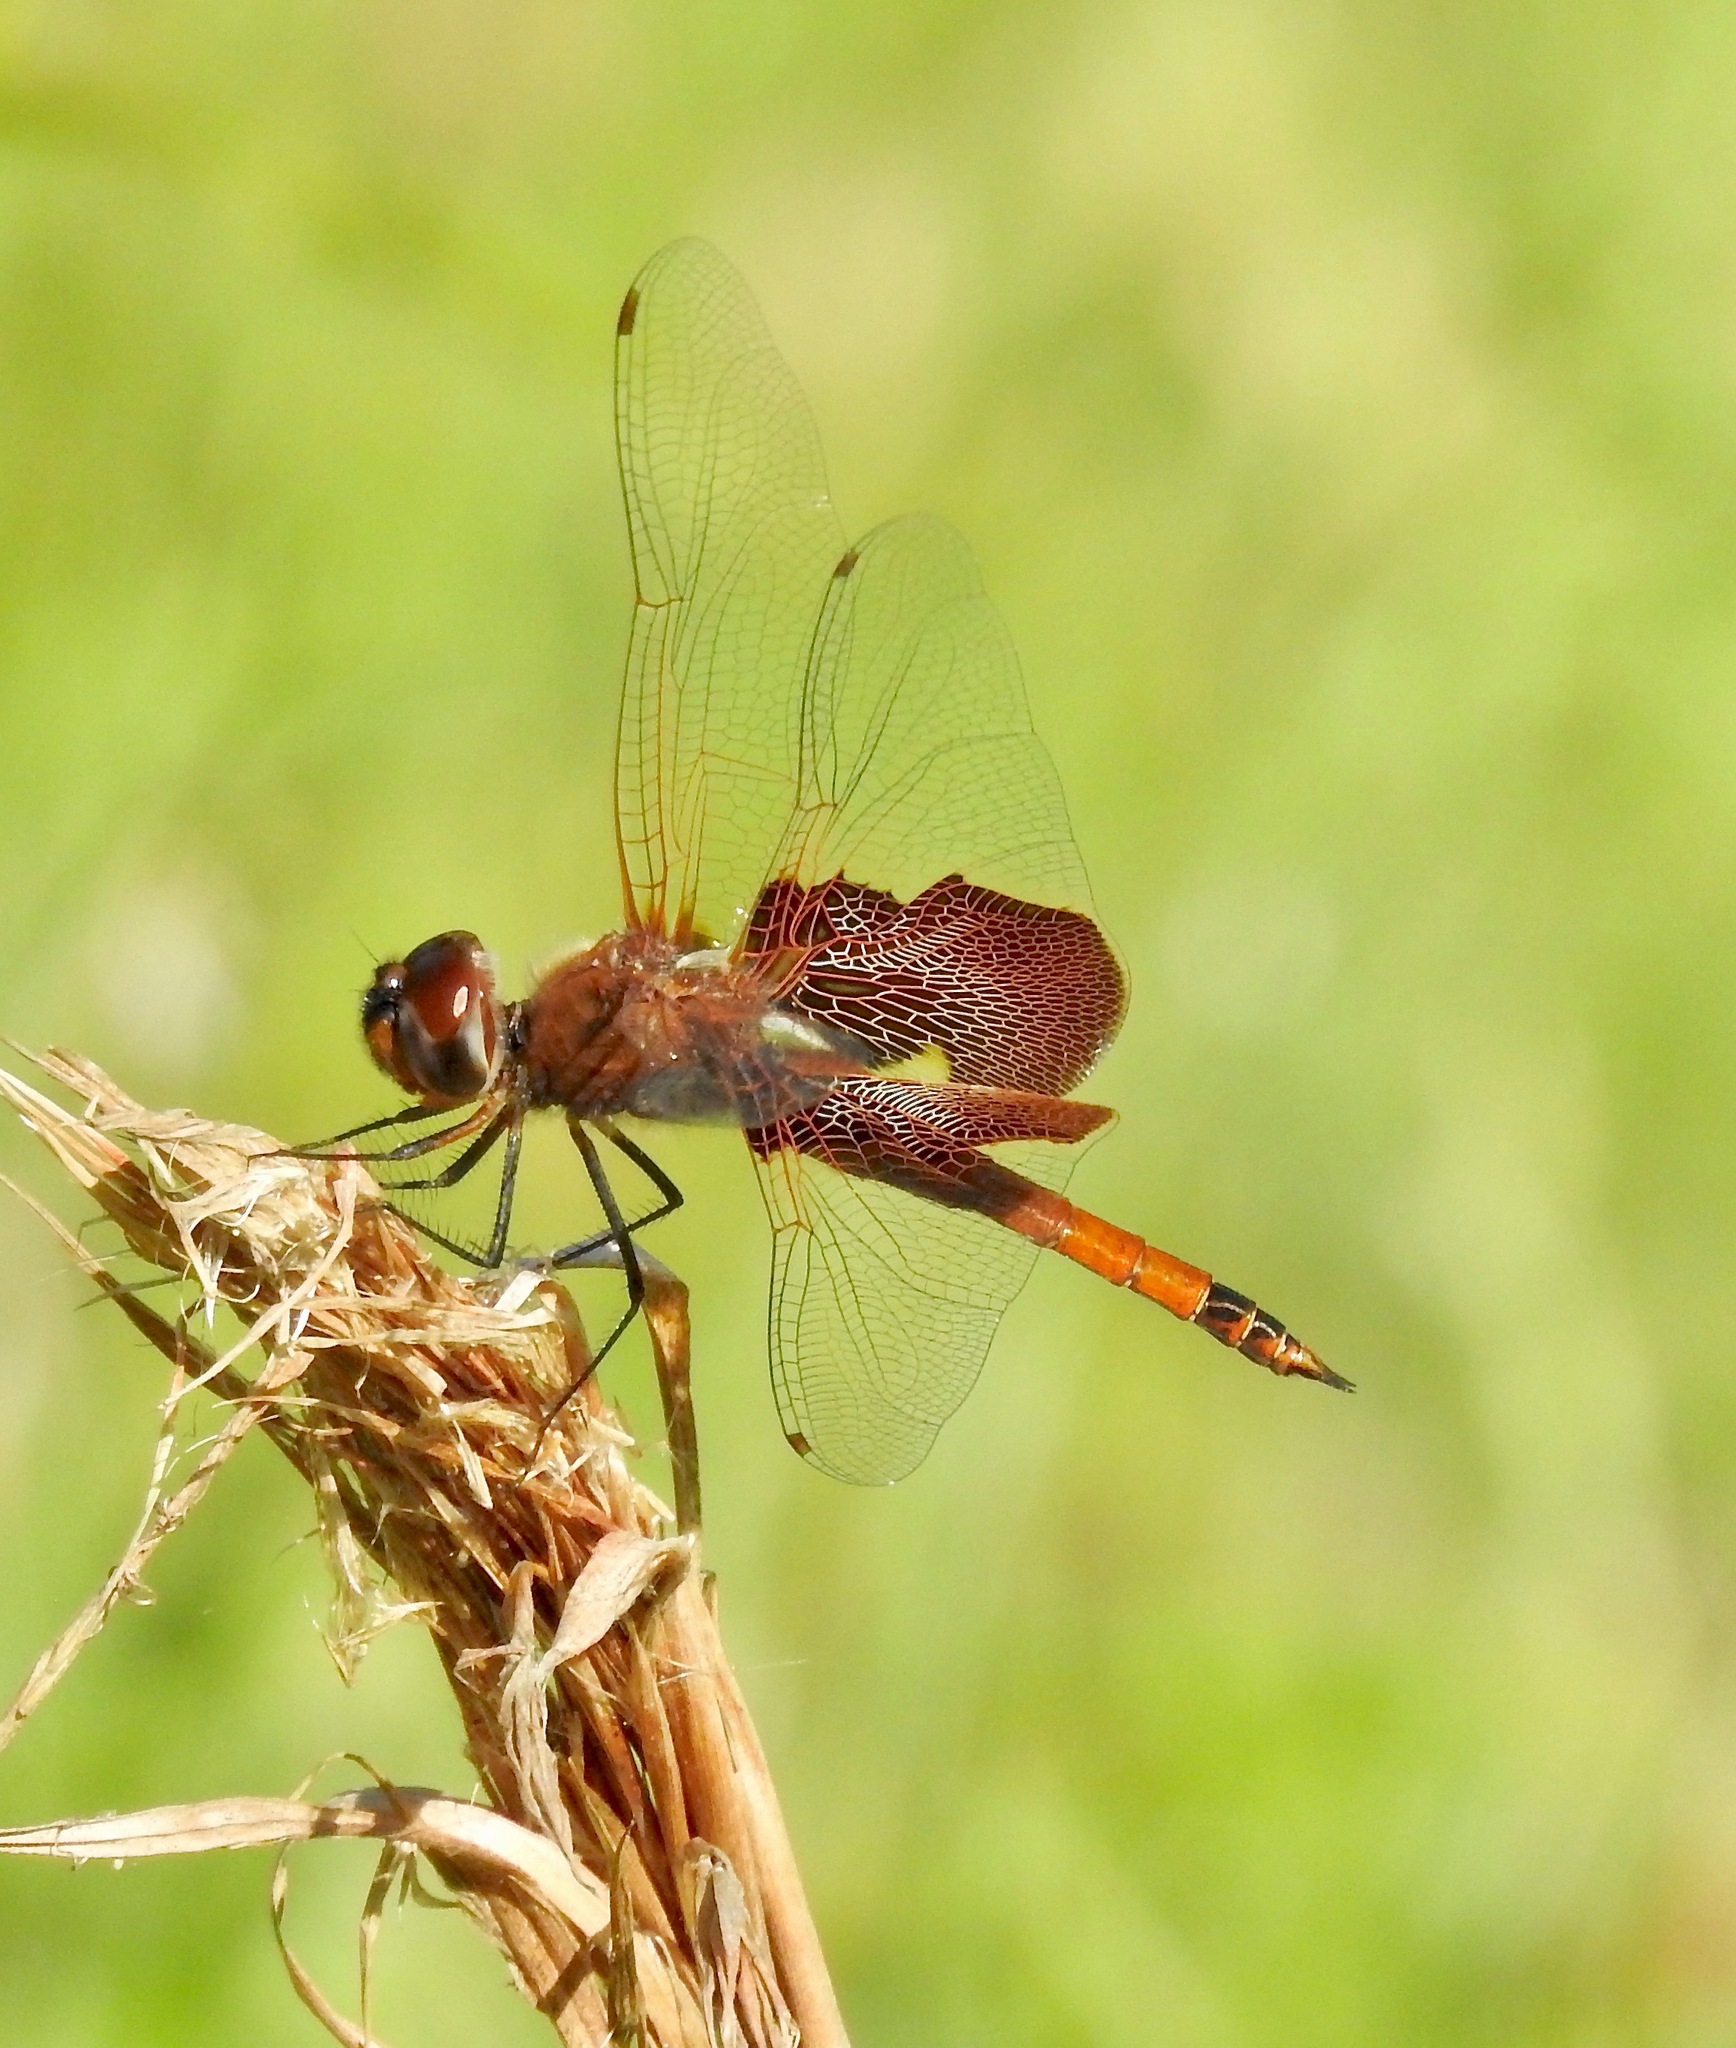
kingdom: Animalia
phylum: Arthropoda
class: Insecta
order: Odonata
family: Libellulidae
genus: Tramea
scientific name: Tramea carolina
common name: Carolina saddlebags
